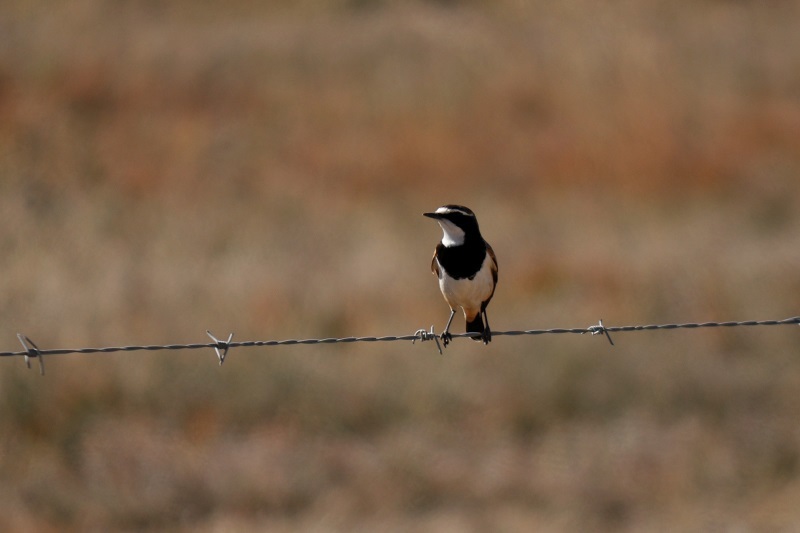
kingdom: Animalia
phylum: Chordata
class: Aves
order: Passeriformes
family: Muscicapidae
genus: Oenanthe
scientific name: Oenanthe pileata
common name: Capped wheatear
